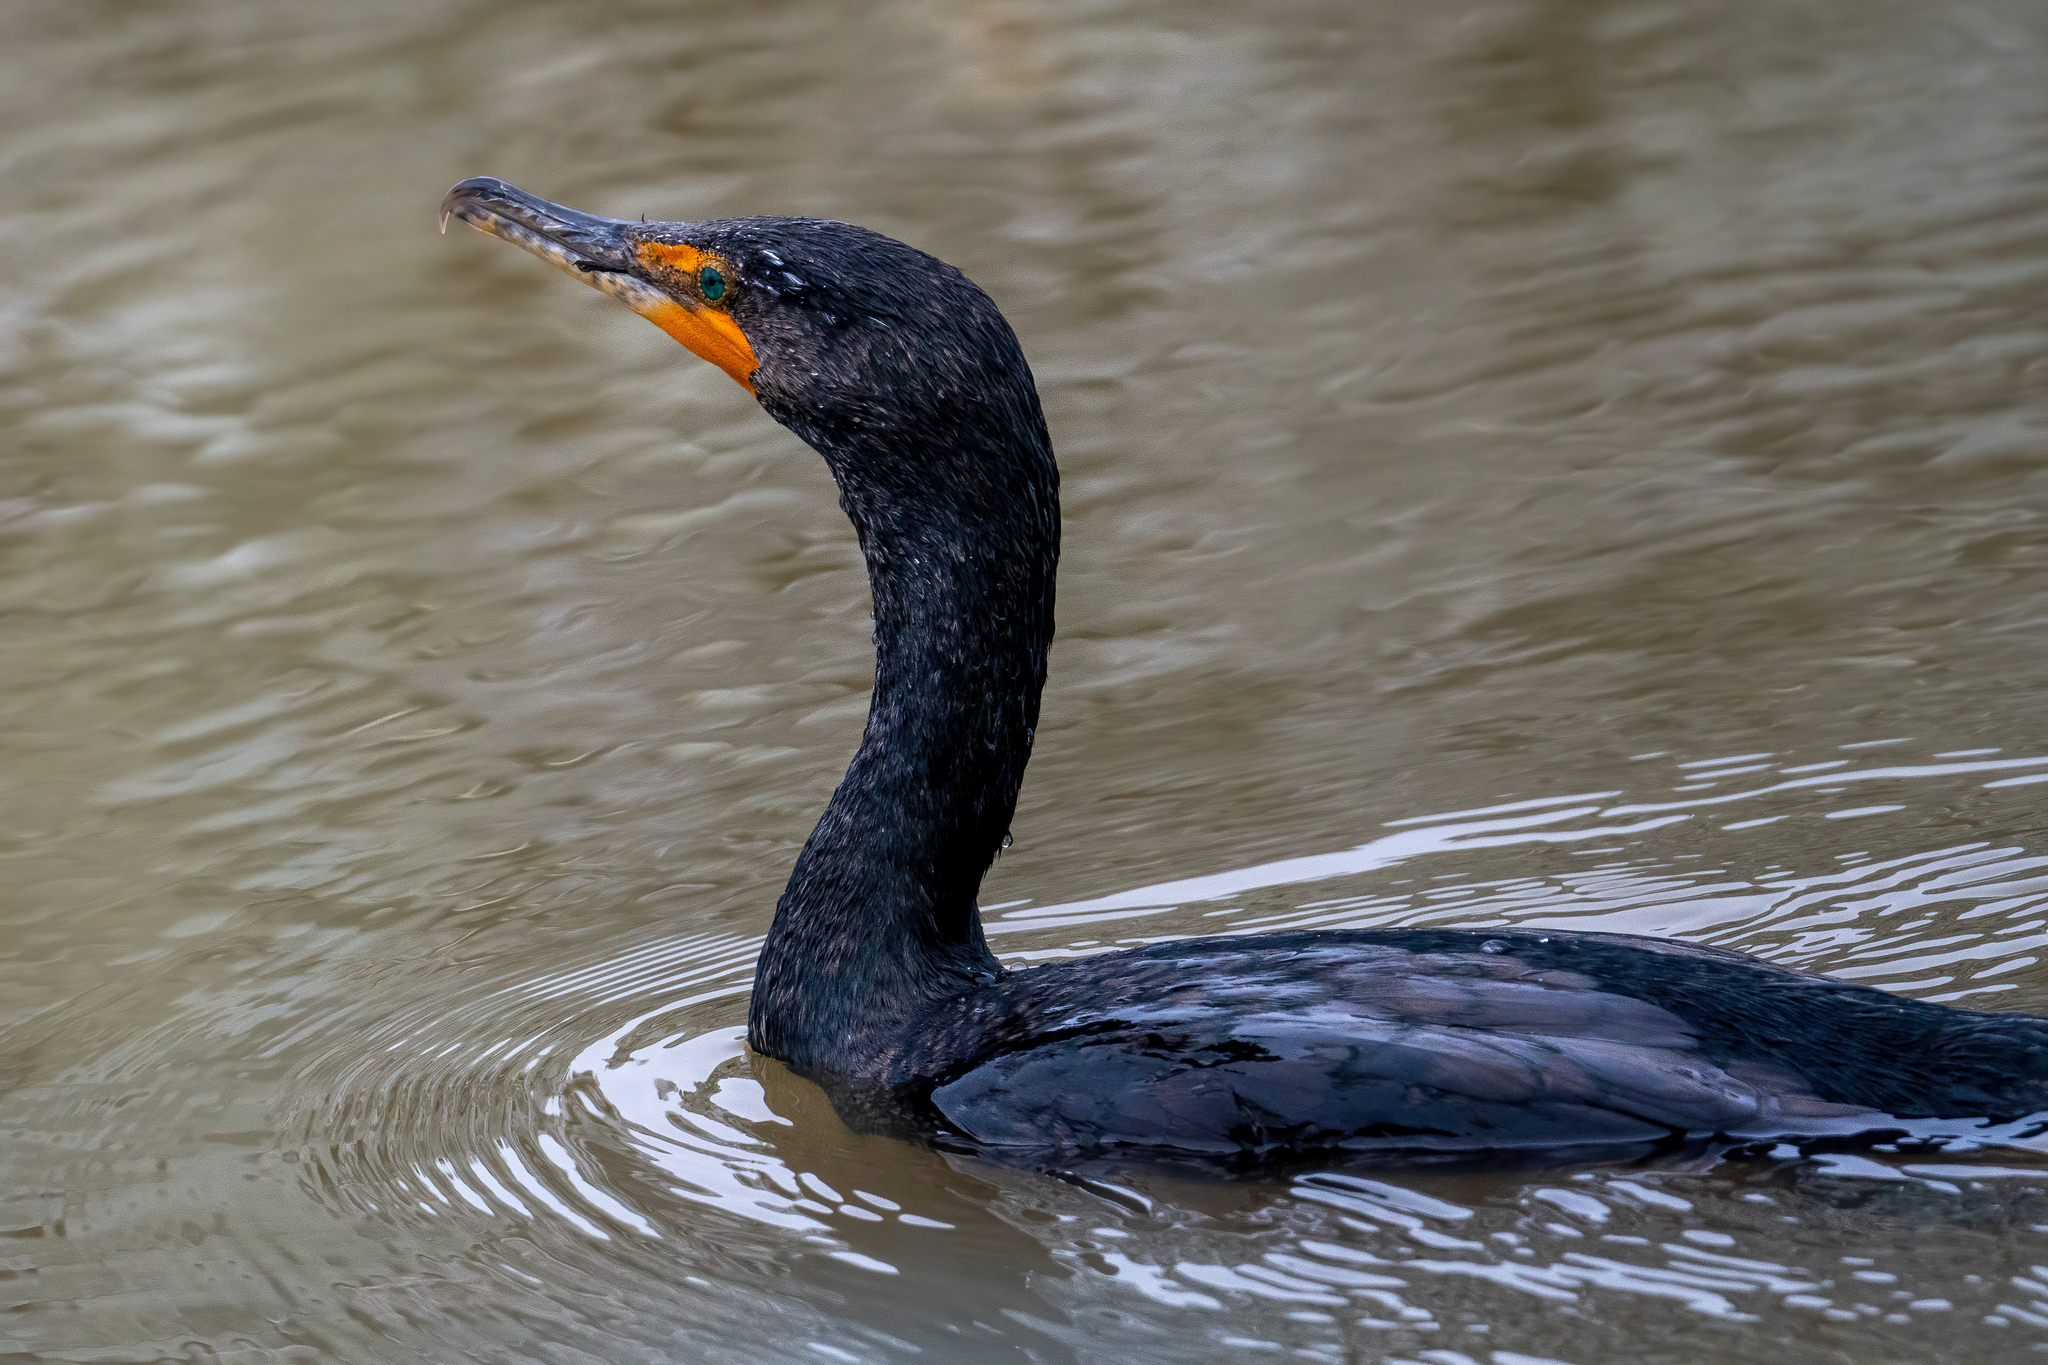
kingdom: Animalia
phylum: Chordata
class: Aves
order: Suliformes
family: Phalacrocoracidae
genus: Phalacrocorax
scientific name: Phalacrocorax auritus
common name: Double-crested cormorant
